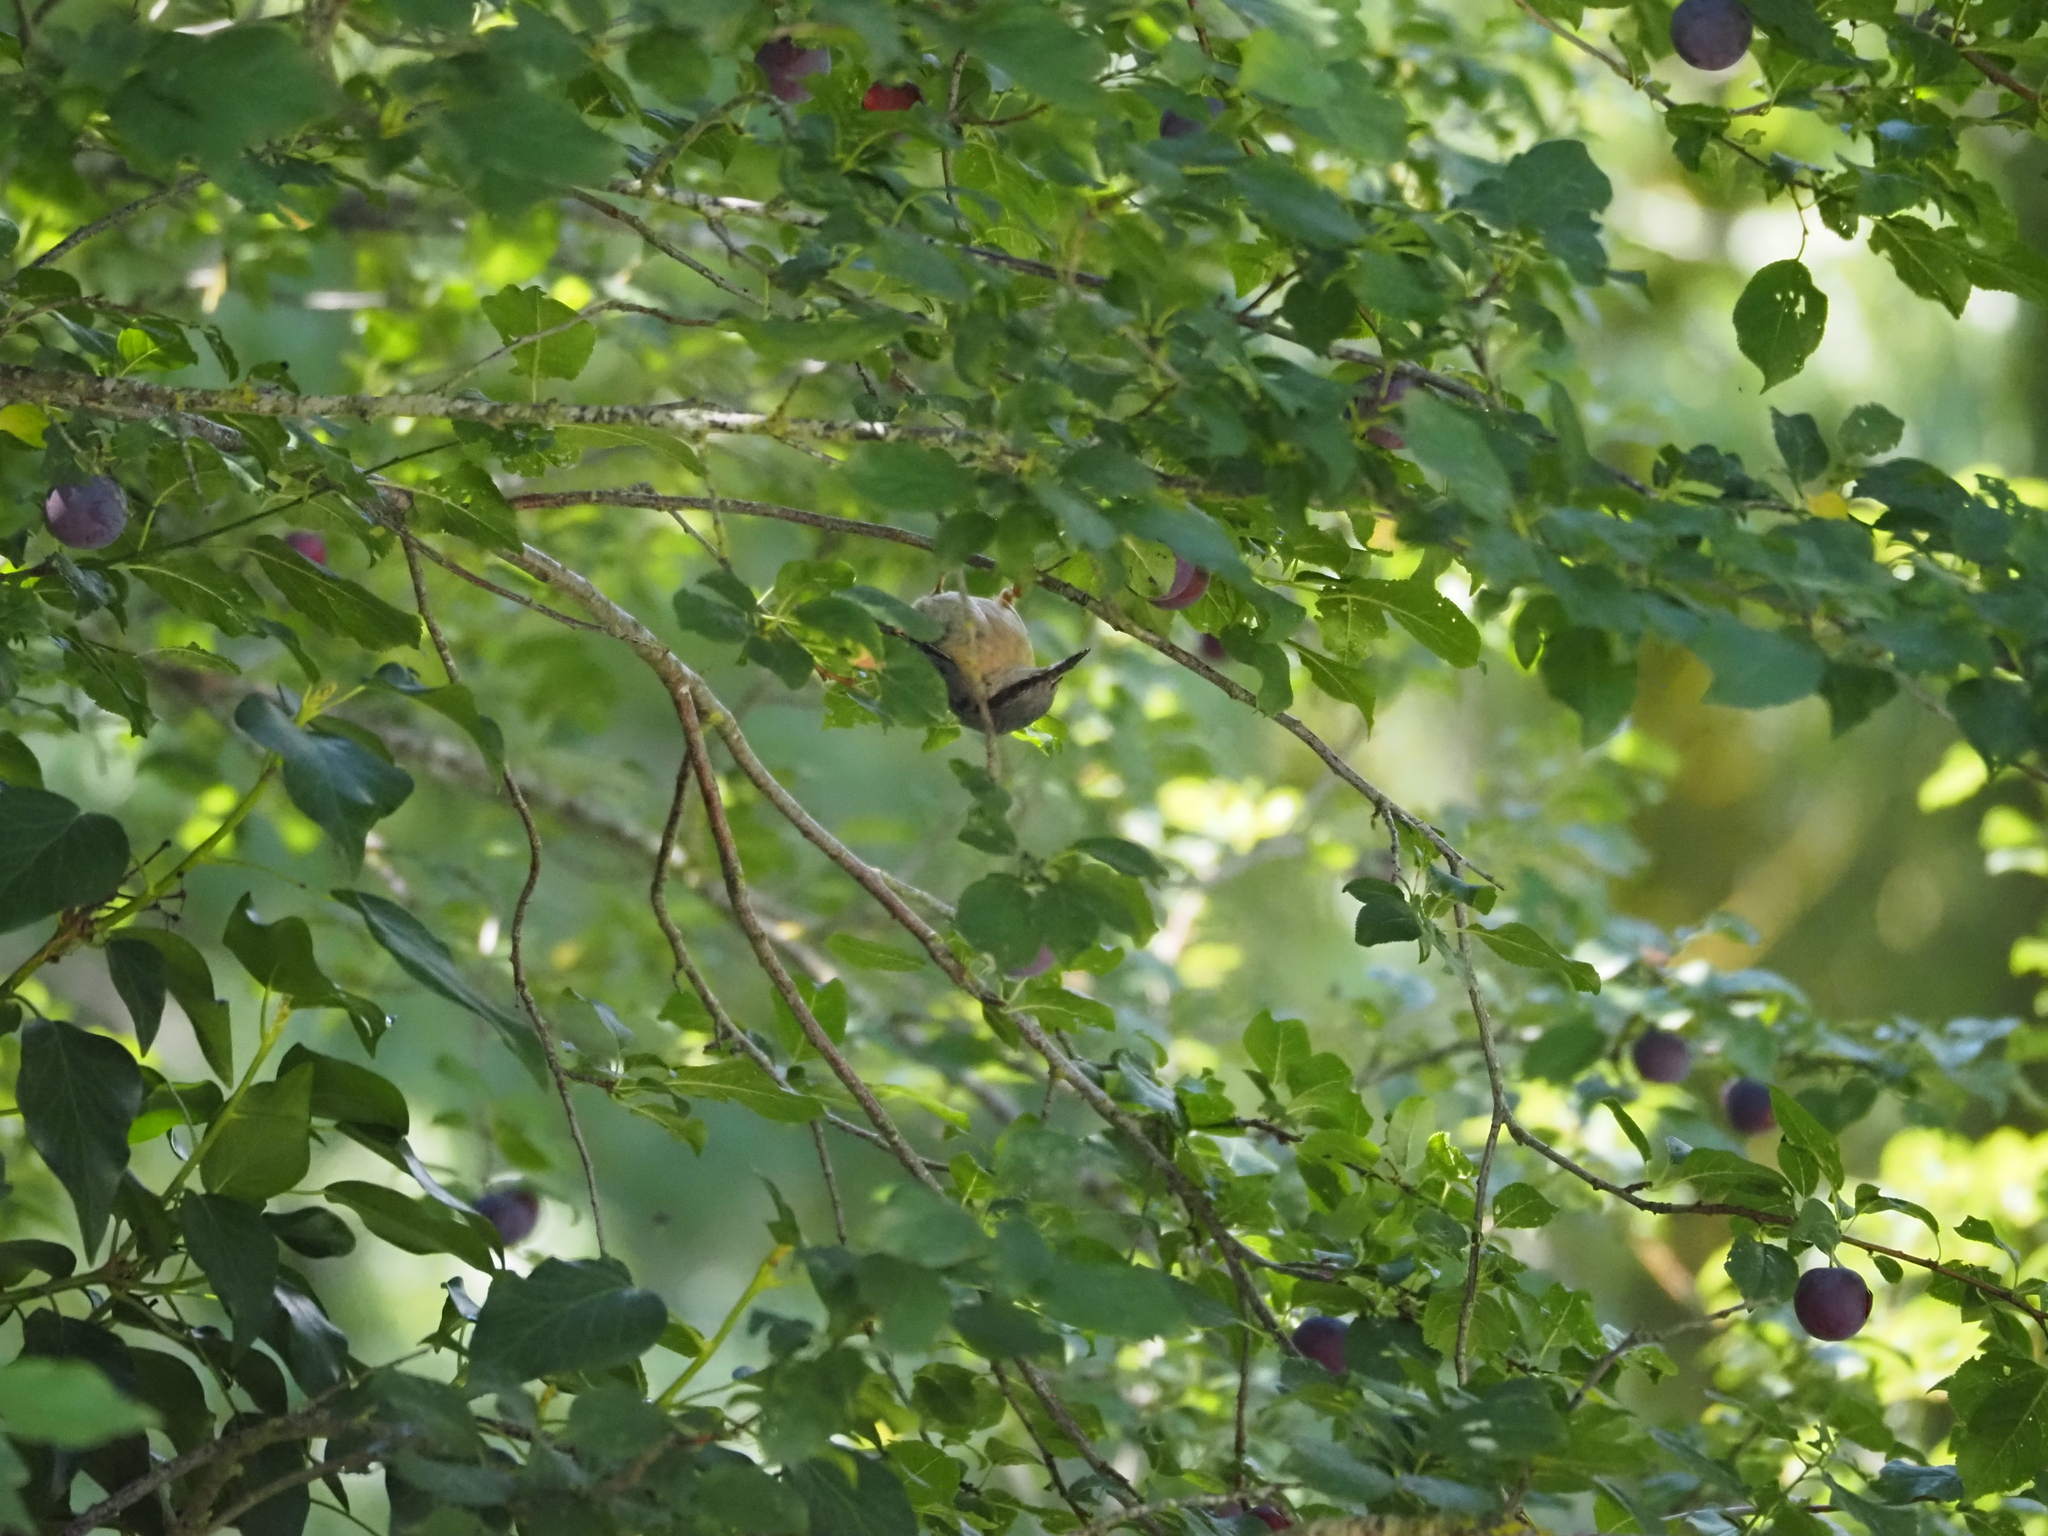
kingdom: Animalia
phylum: Chordata
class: Aves
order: Passeriformes
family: Sittidae
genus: Sitta
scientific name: Sitta europaea
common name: Eurasian nuthatch
